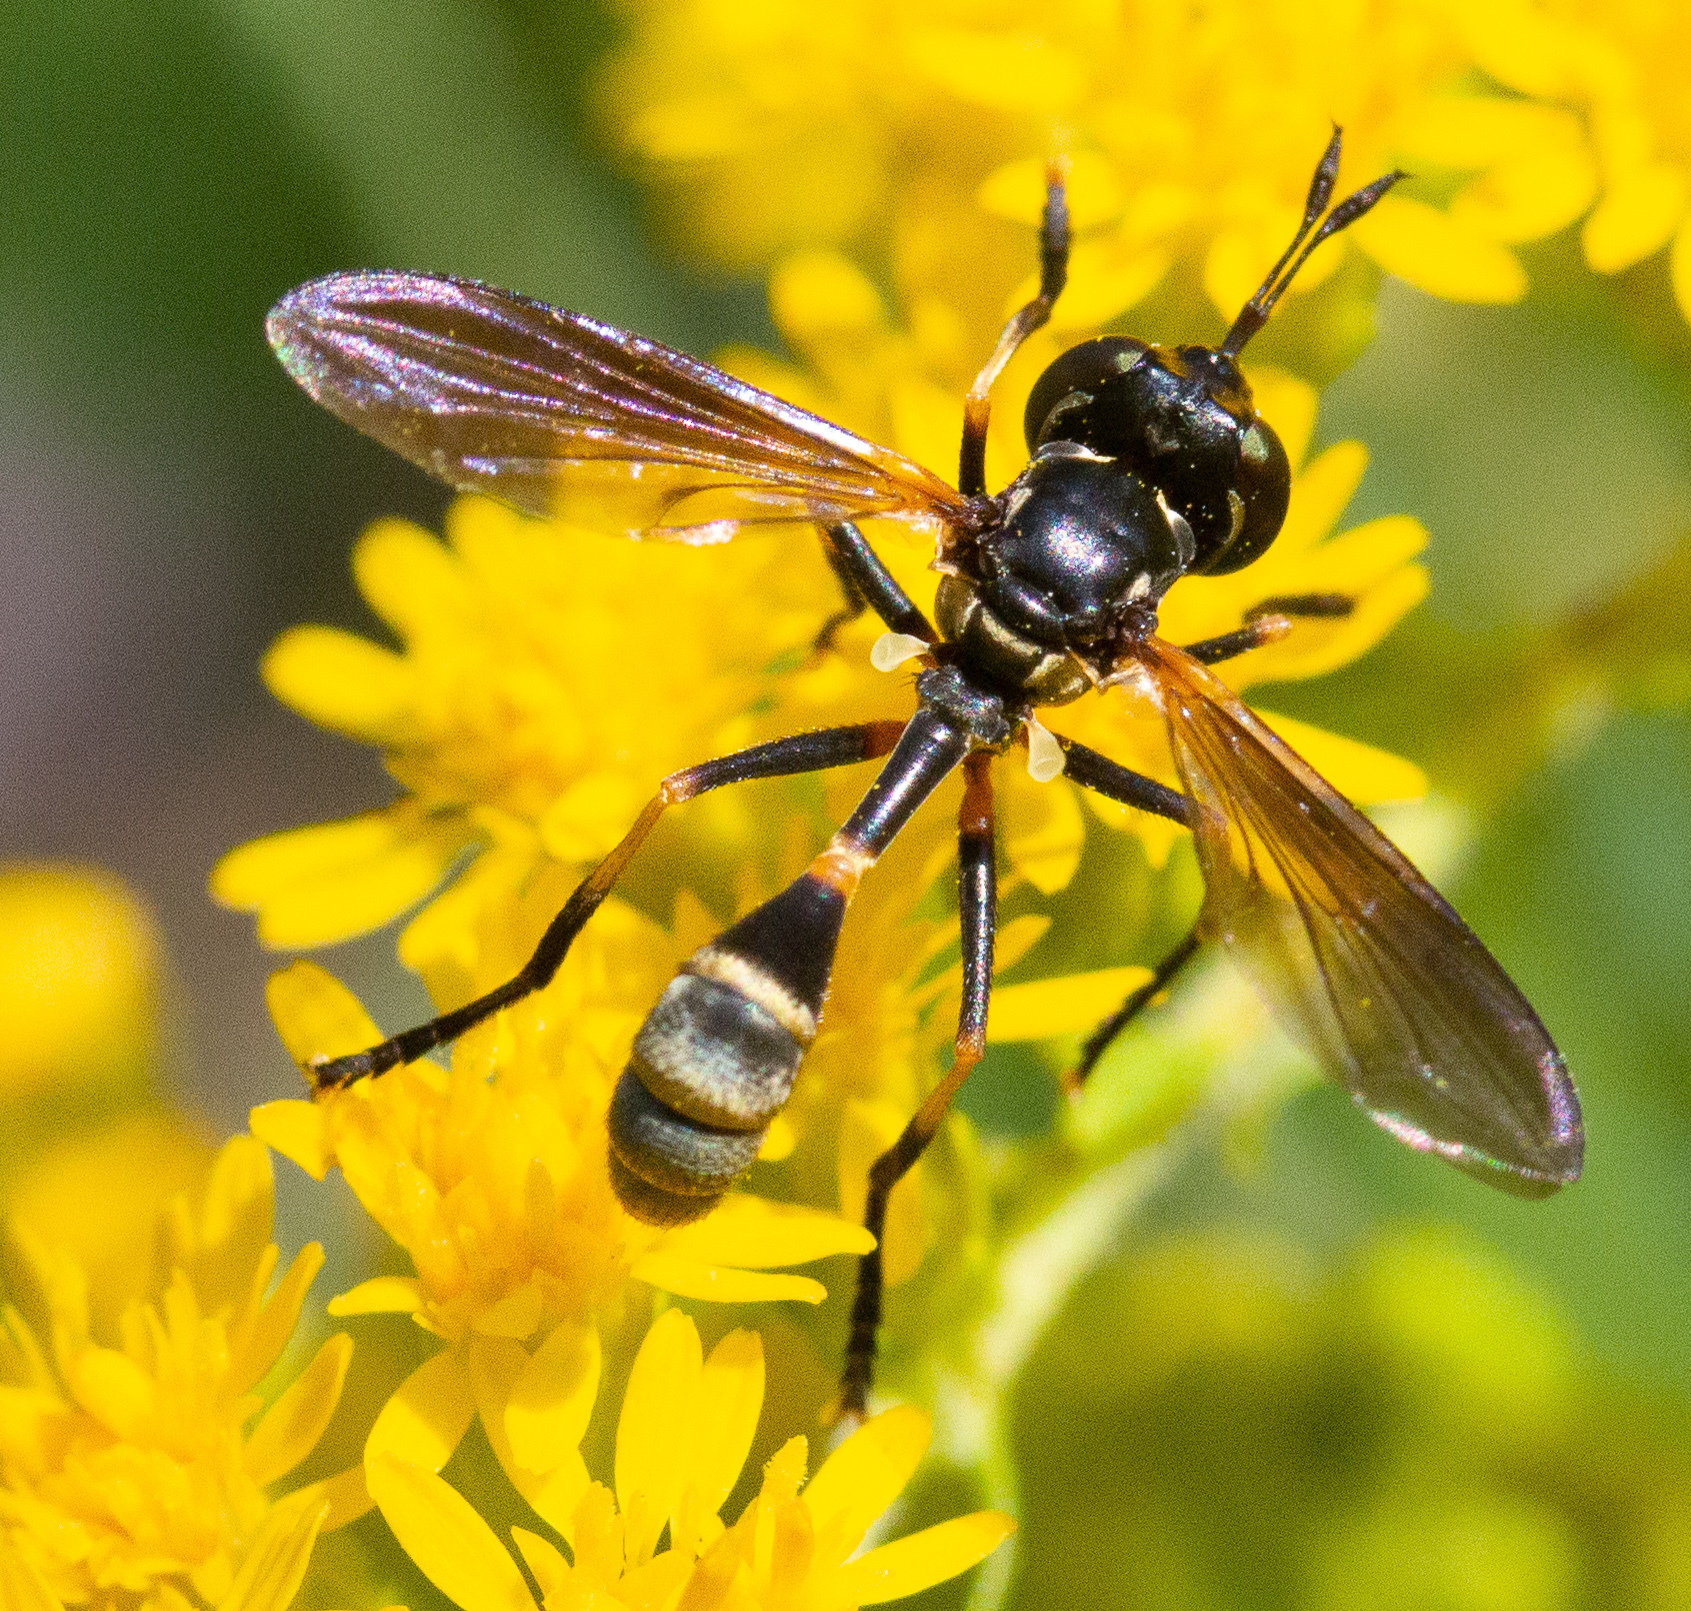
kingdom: Animalia
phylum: Arthropoda
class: Insecta
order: Diptera
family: Conopidae
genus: Physoconops
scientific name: Physoconops obscuripennis
